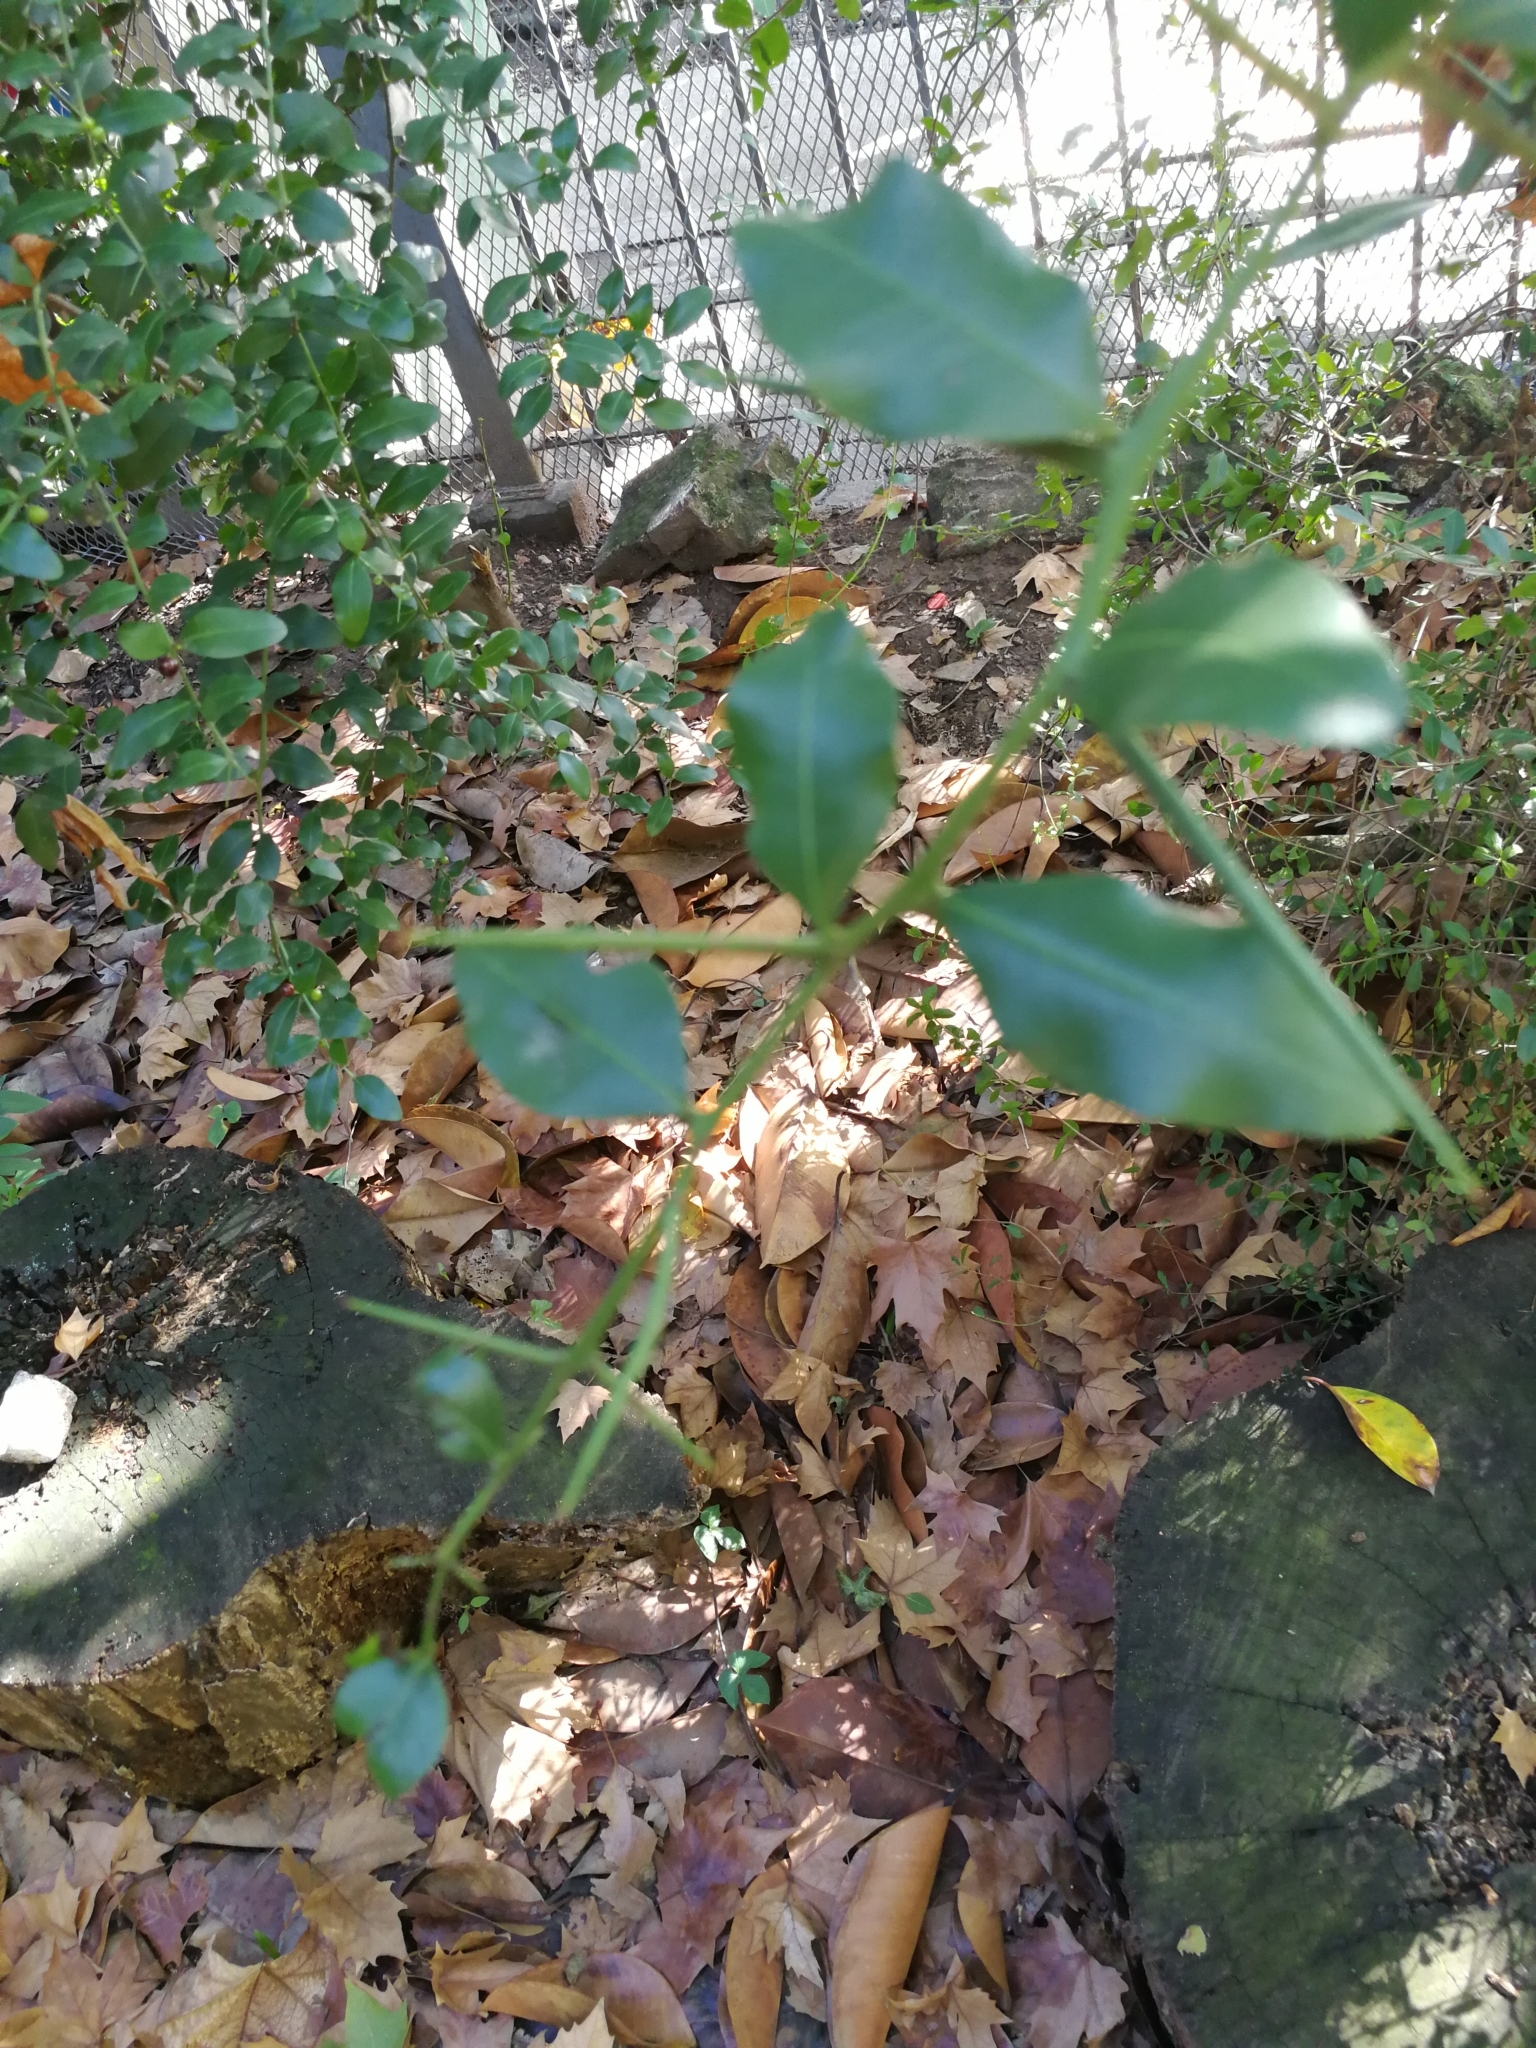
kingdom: Plantae
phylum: Tracheophyta
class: Magnoliopsida
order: Rosales
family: Rhamnaceae
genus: Scutia
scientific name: Scutia buxifolia
